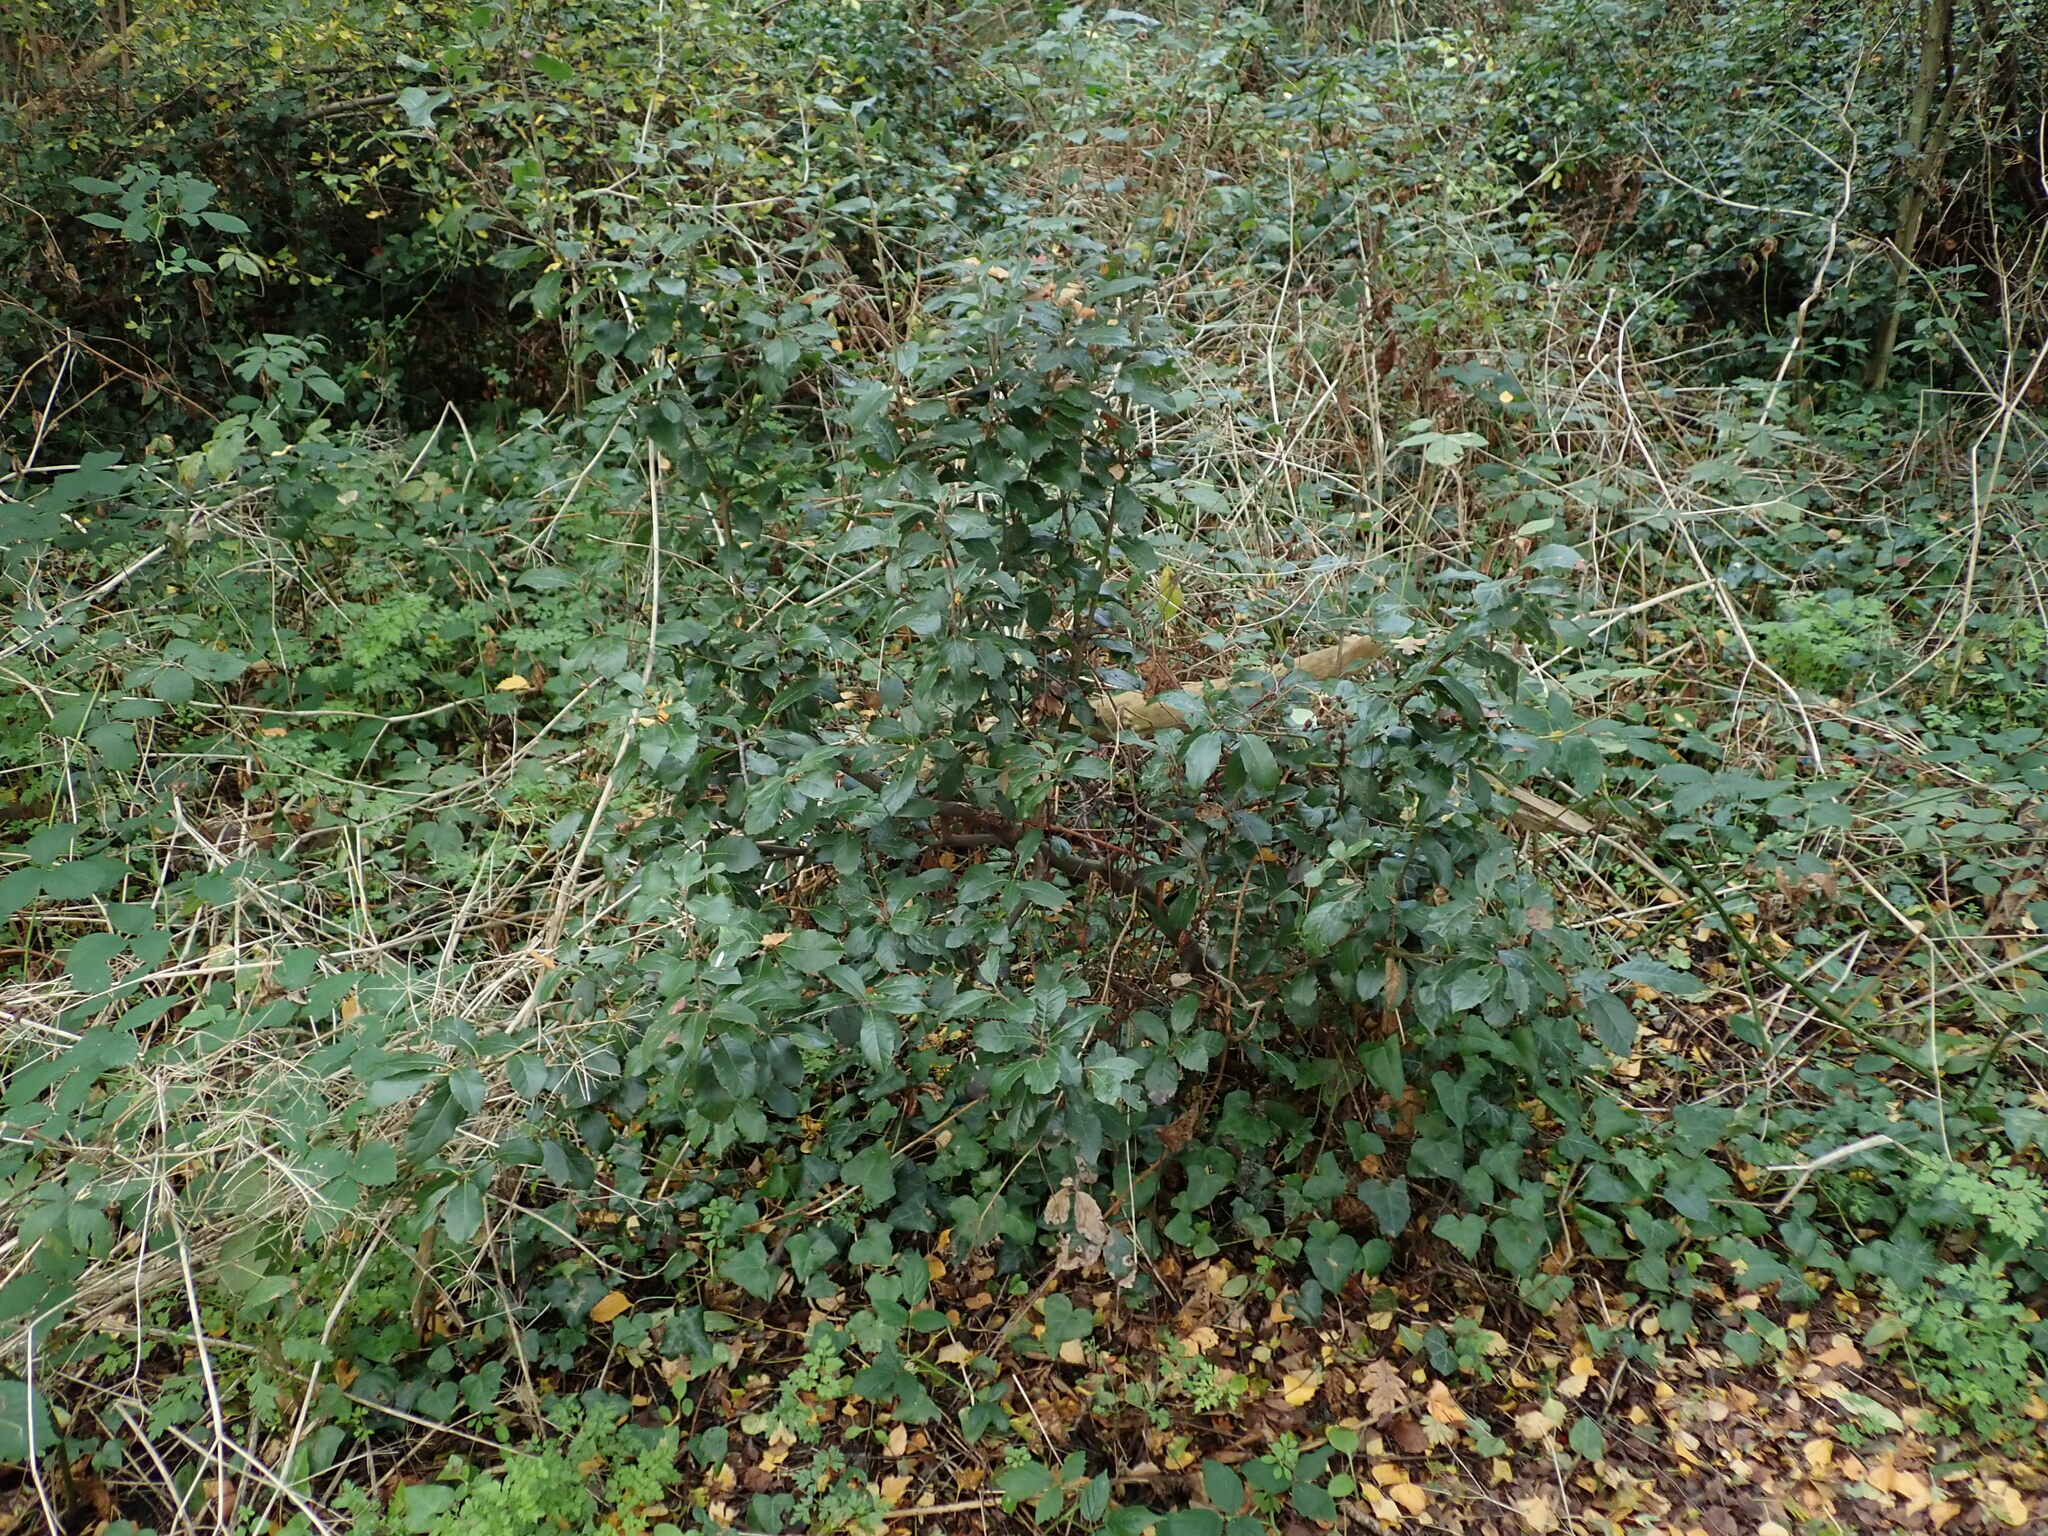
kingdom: Plantae
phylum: Tracheophyta
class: Magnoliopsida
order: Fagales
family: Fagaceae
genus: Quercus
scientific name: Quercus ilex
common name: Evergreen oak
